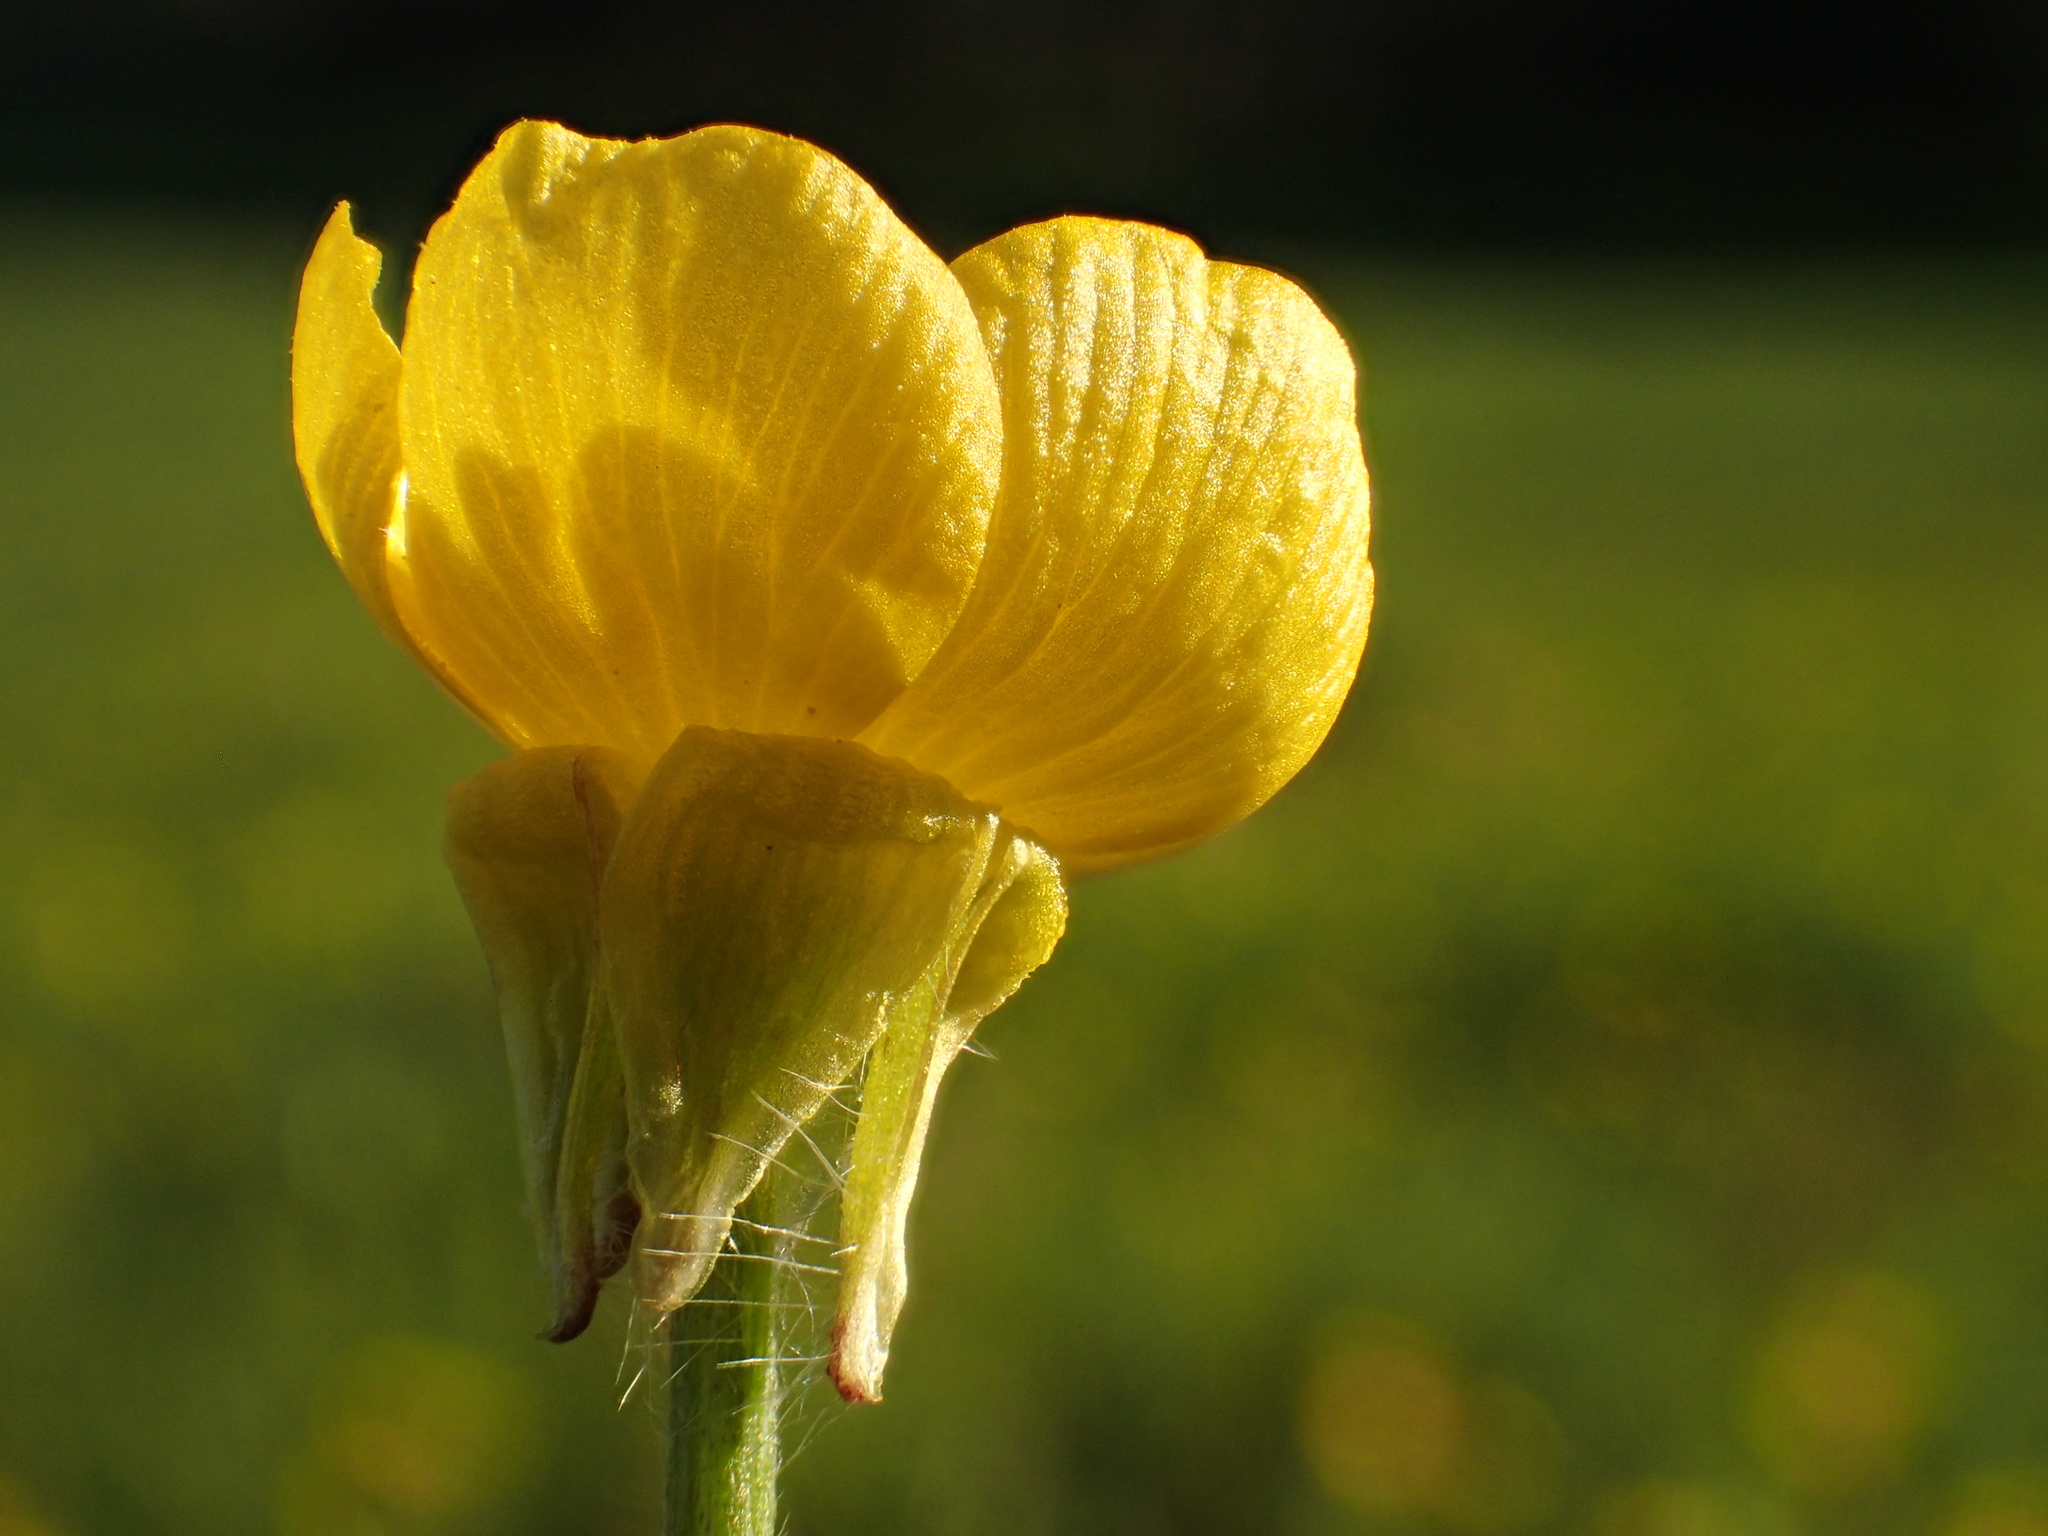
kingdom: Plantae
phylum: Tracheophyta
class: Magnoliopsida
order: Ranunculales
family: Ranunculaceae
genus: Ranunculus
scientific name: Ranunculus bulbosus
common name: Bulbous buttercup
